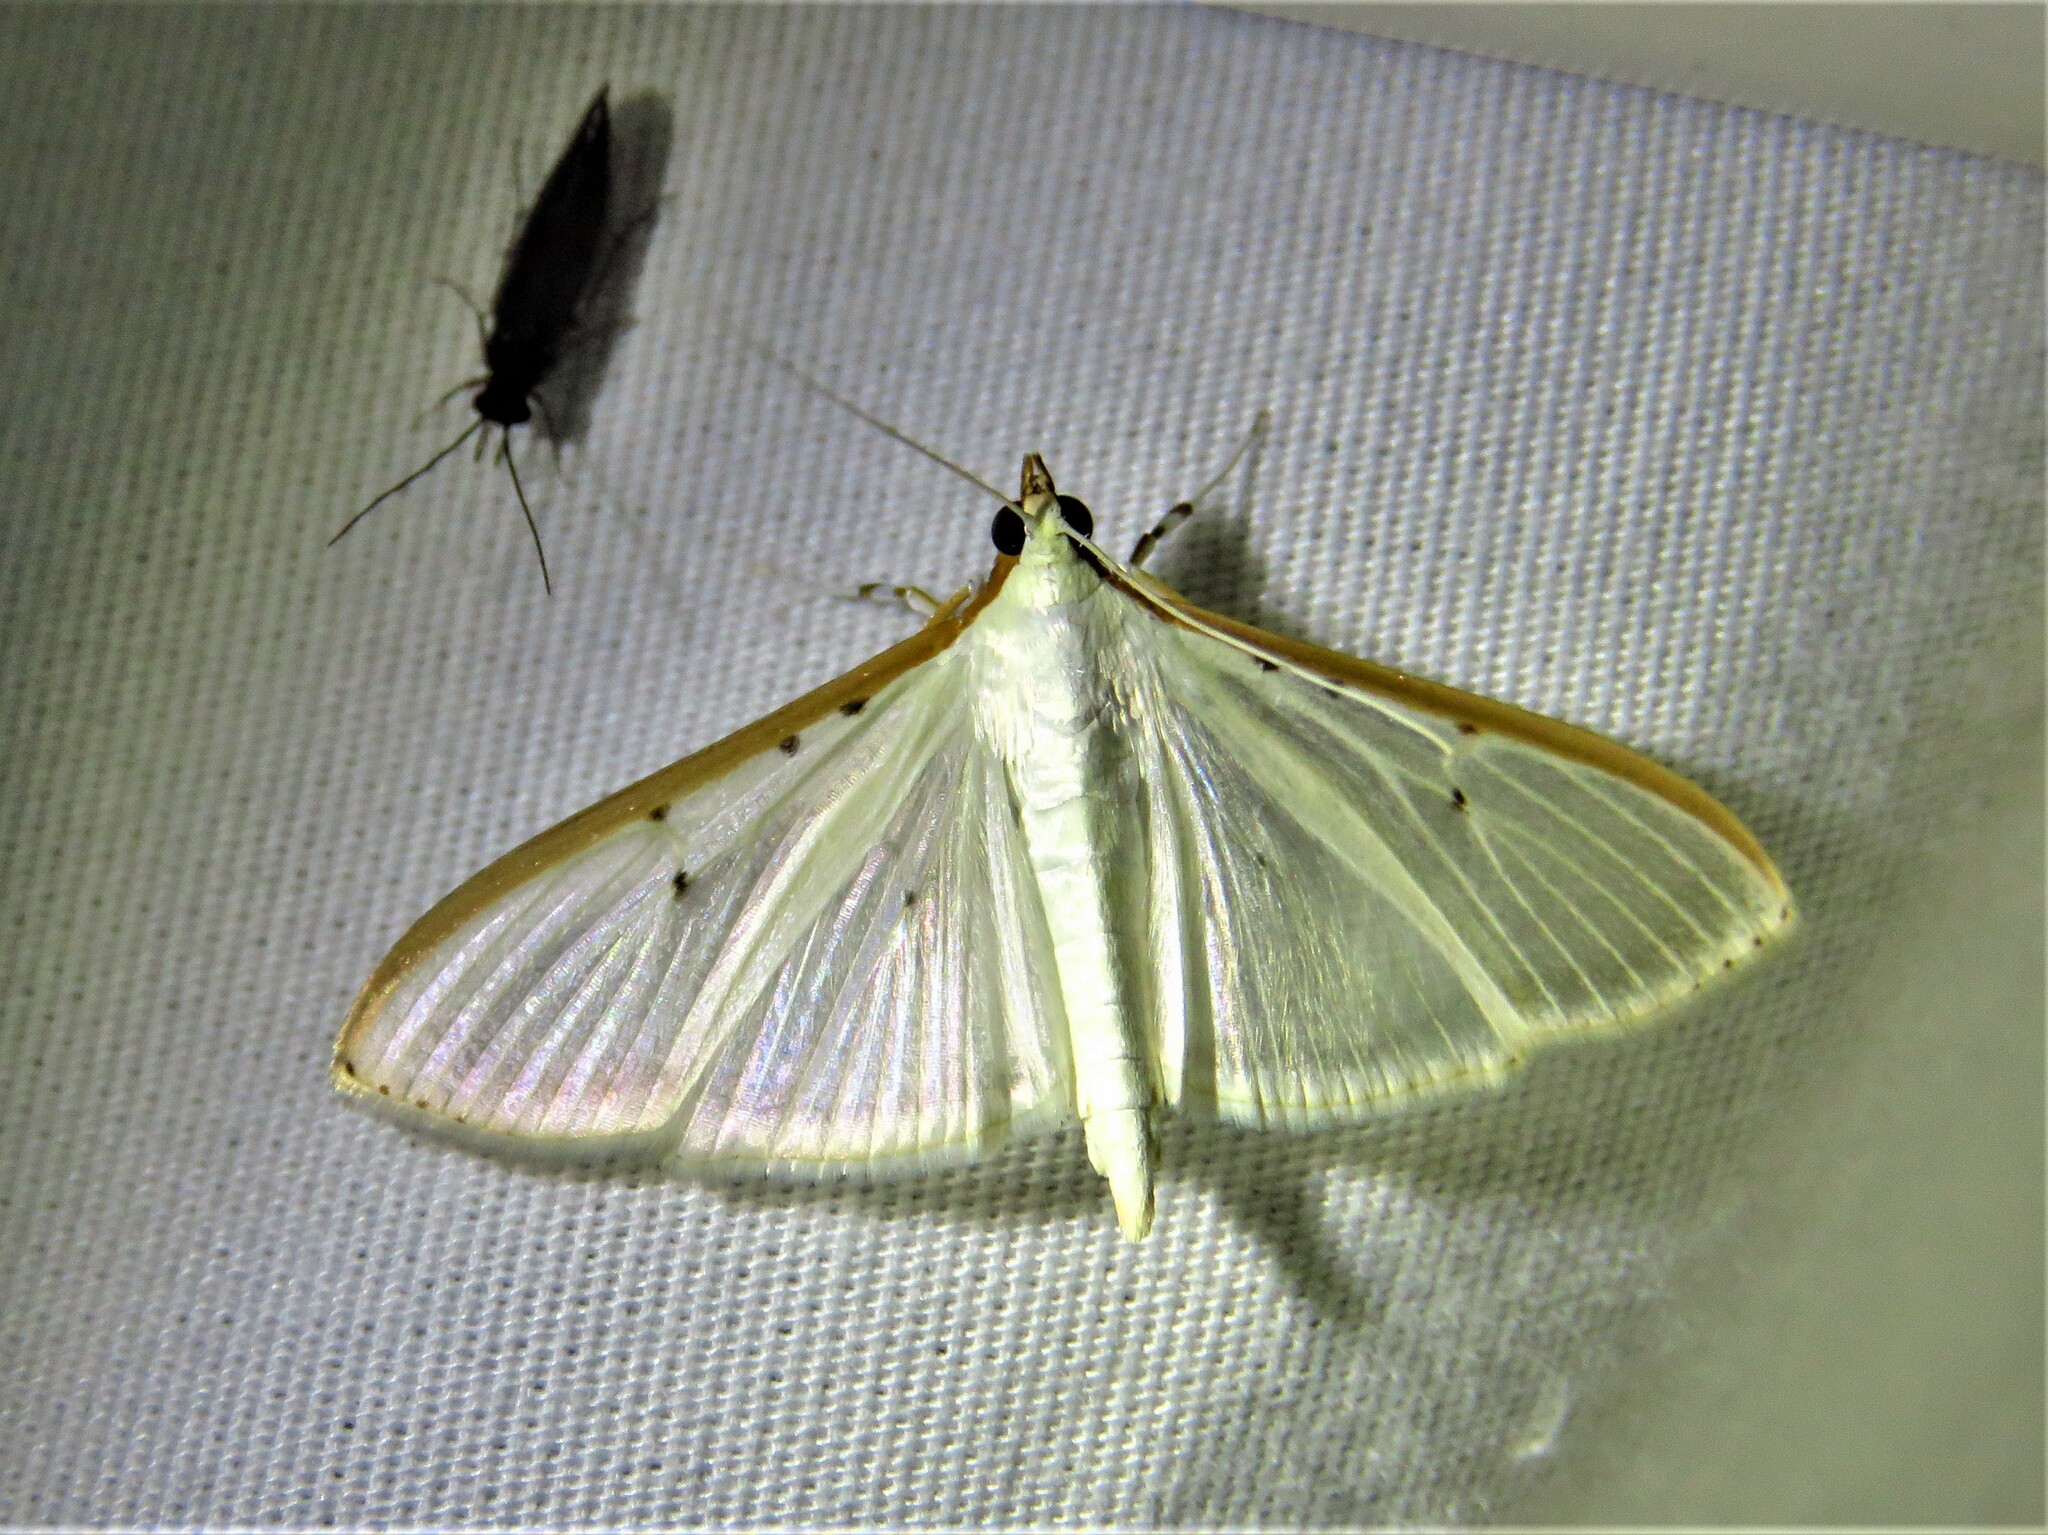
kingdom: Animalia
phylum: Arthropoda
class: Insecta
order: Lepidoptera
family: Crambidae
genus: Palpita
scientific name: Palpita quadristigmalis
